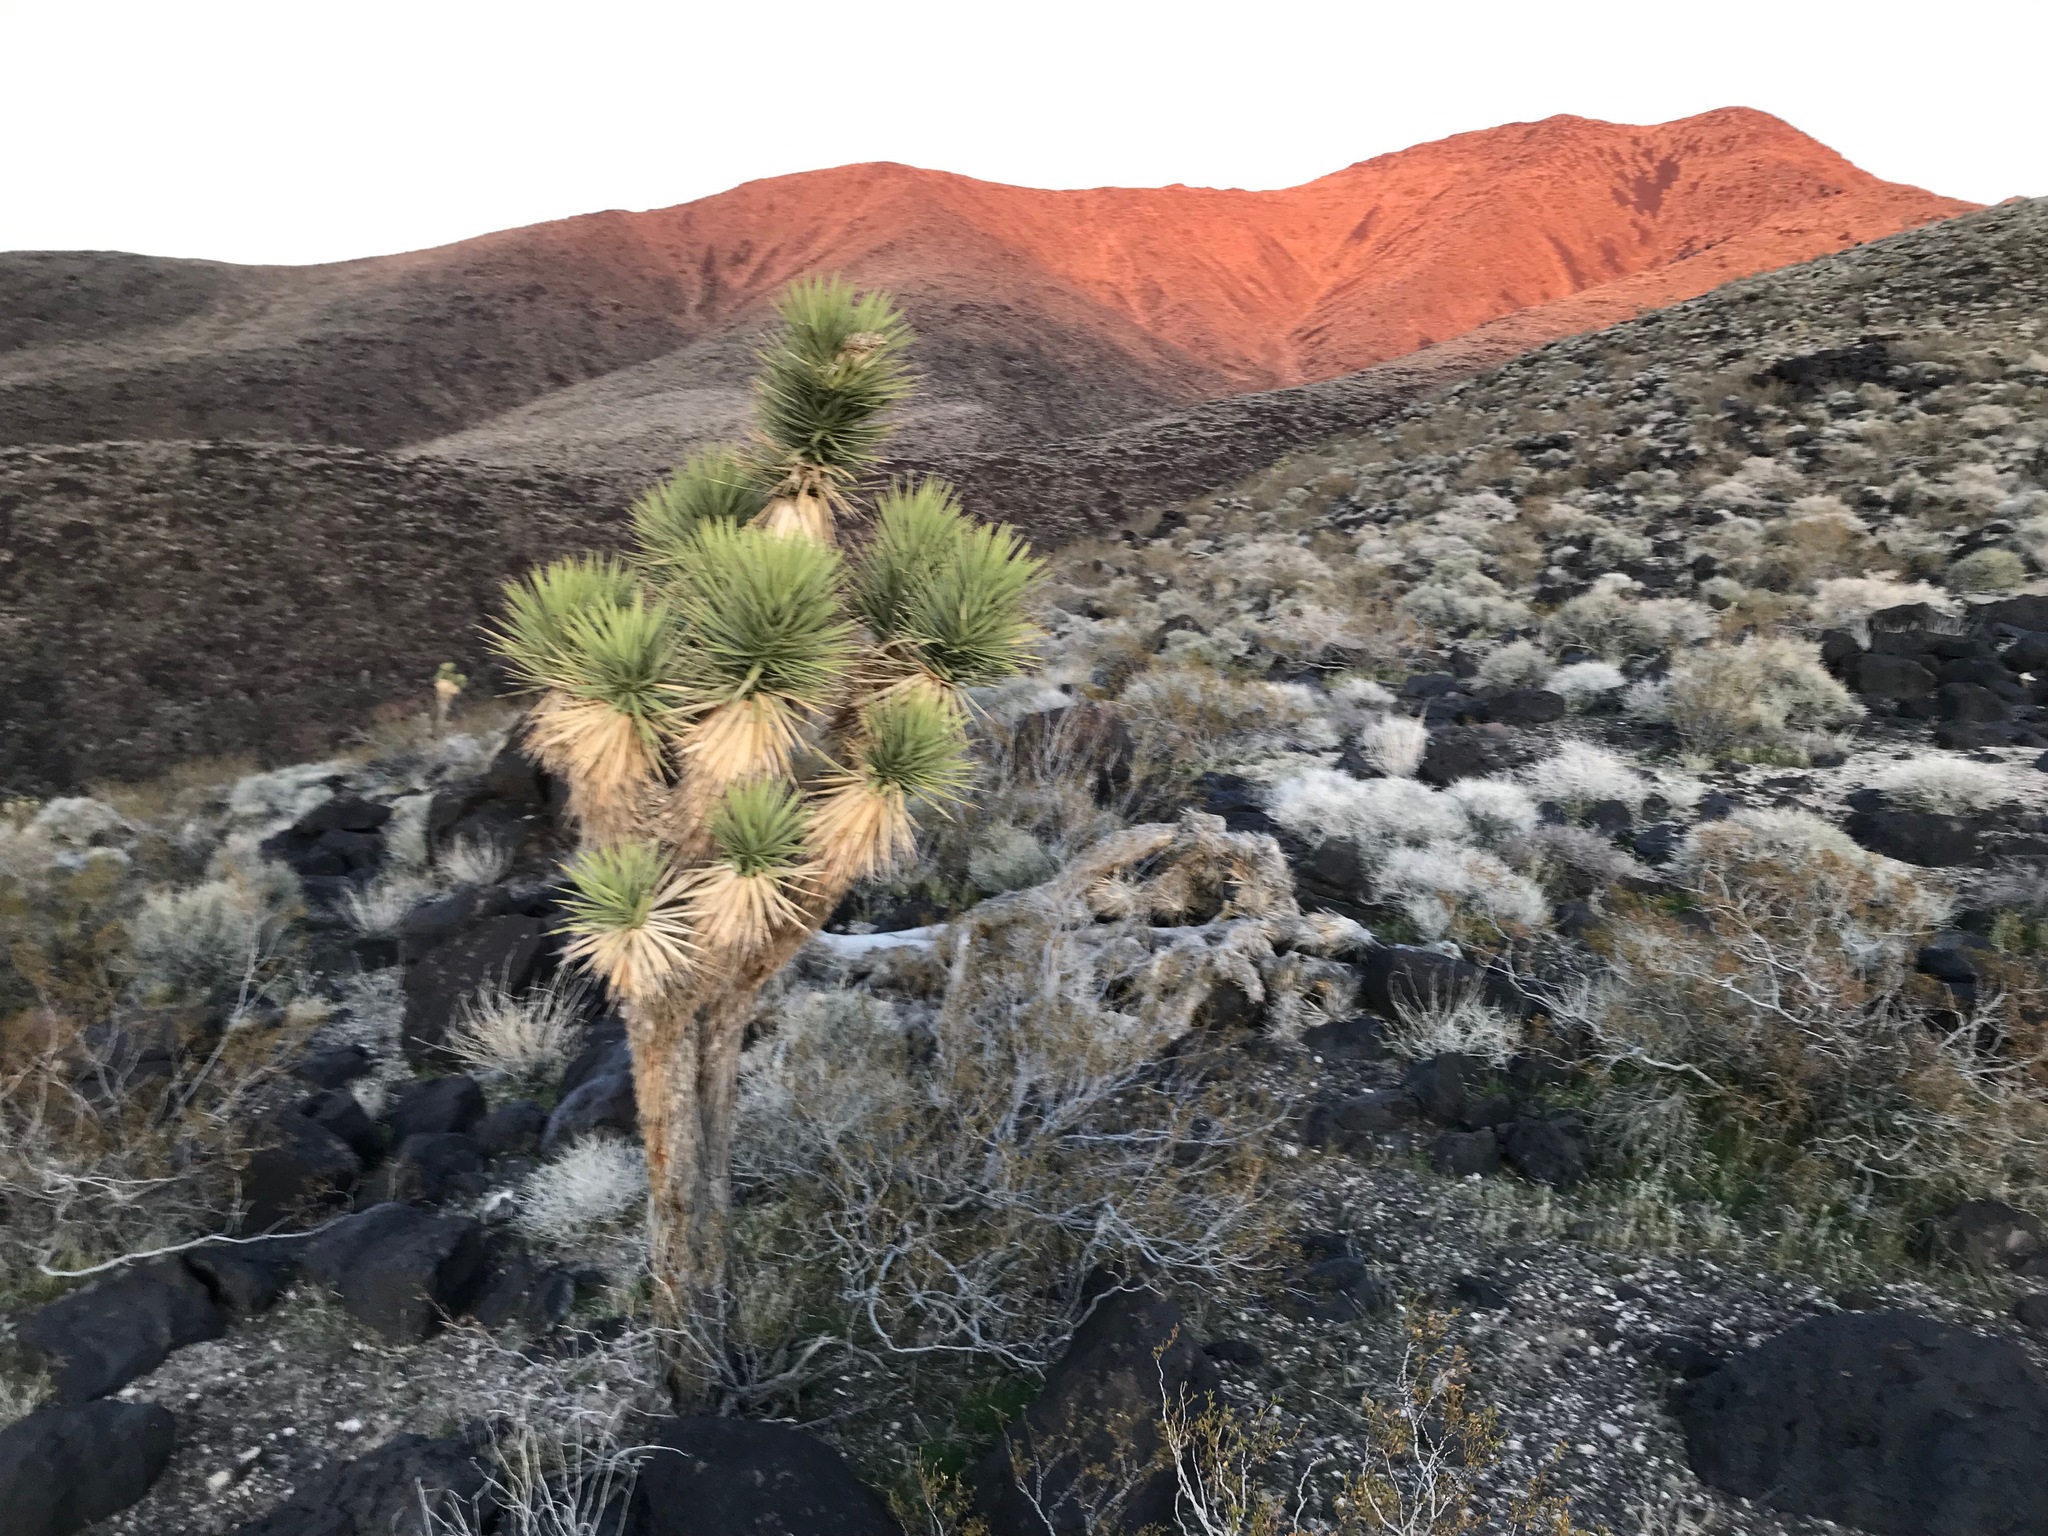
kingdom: Plantae
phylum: Tracheophyta
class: Liliopsida
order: Asparagales
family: Asparagaceae
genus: Yucca
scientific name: Yucca brevifolia
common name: Joshua tree
